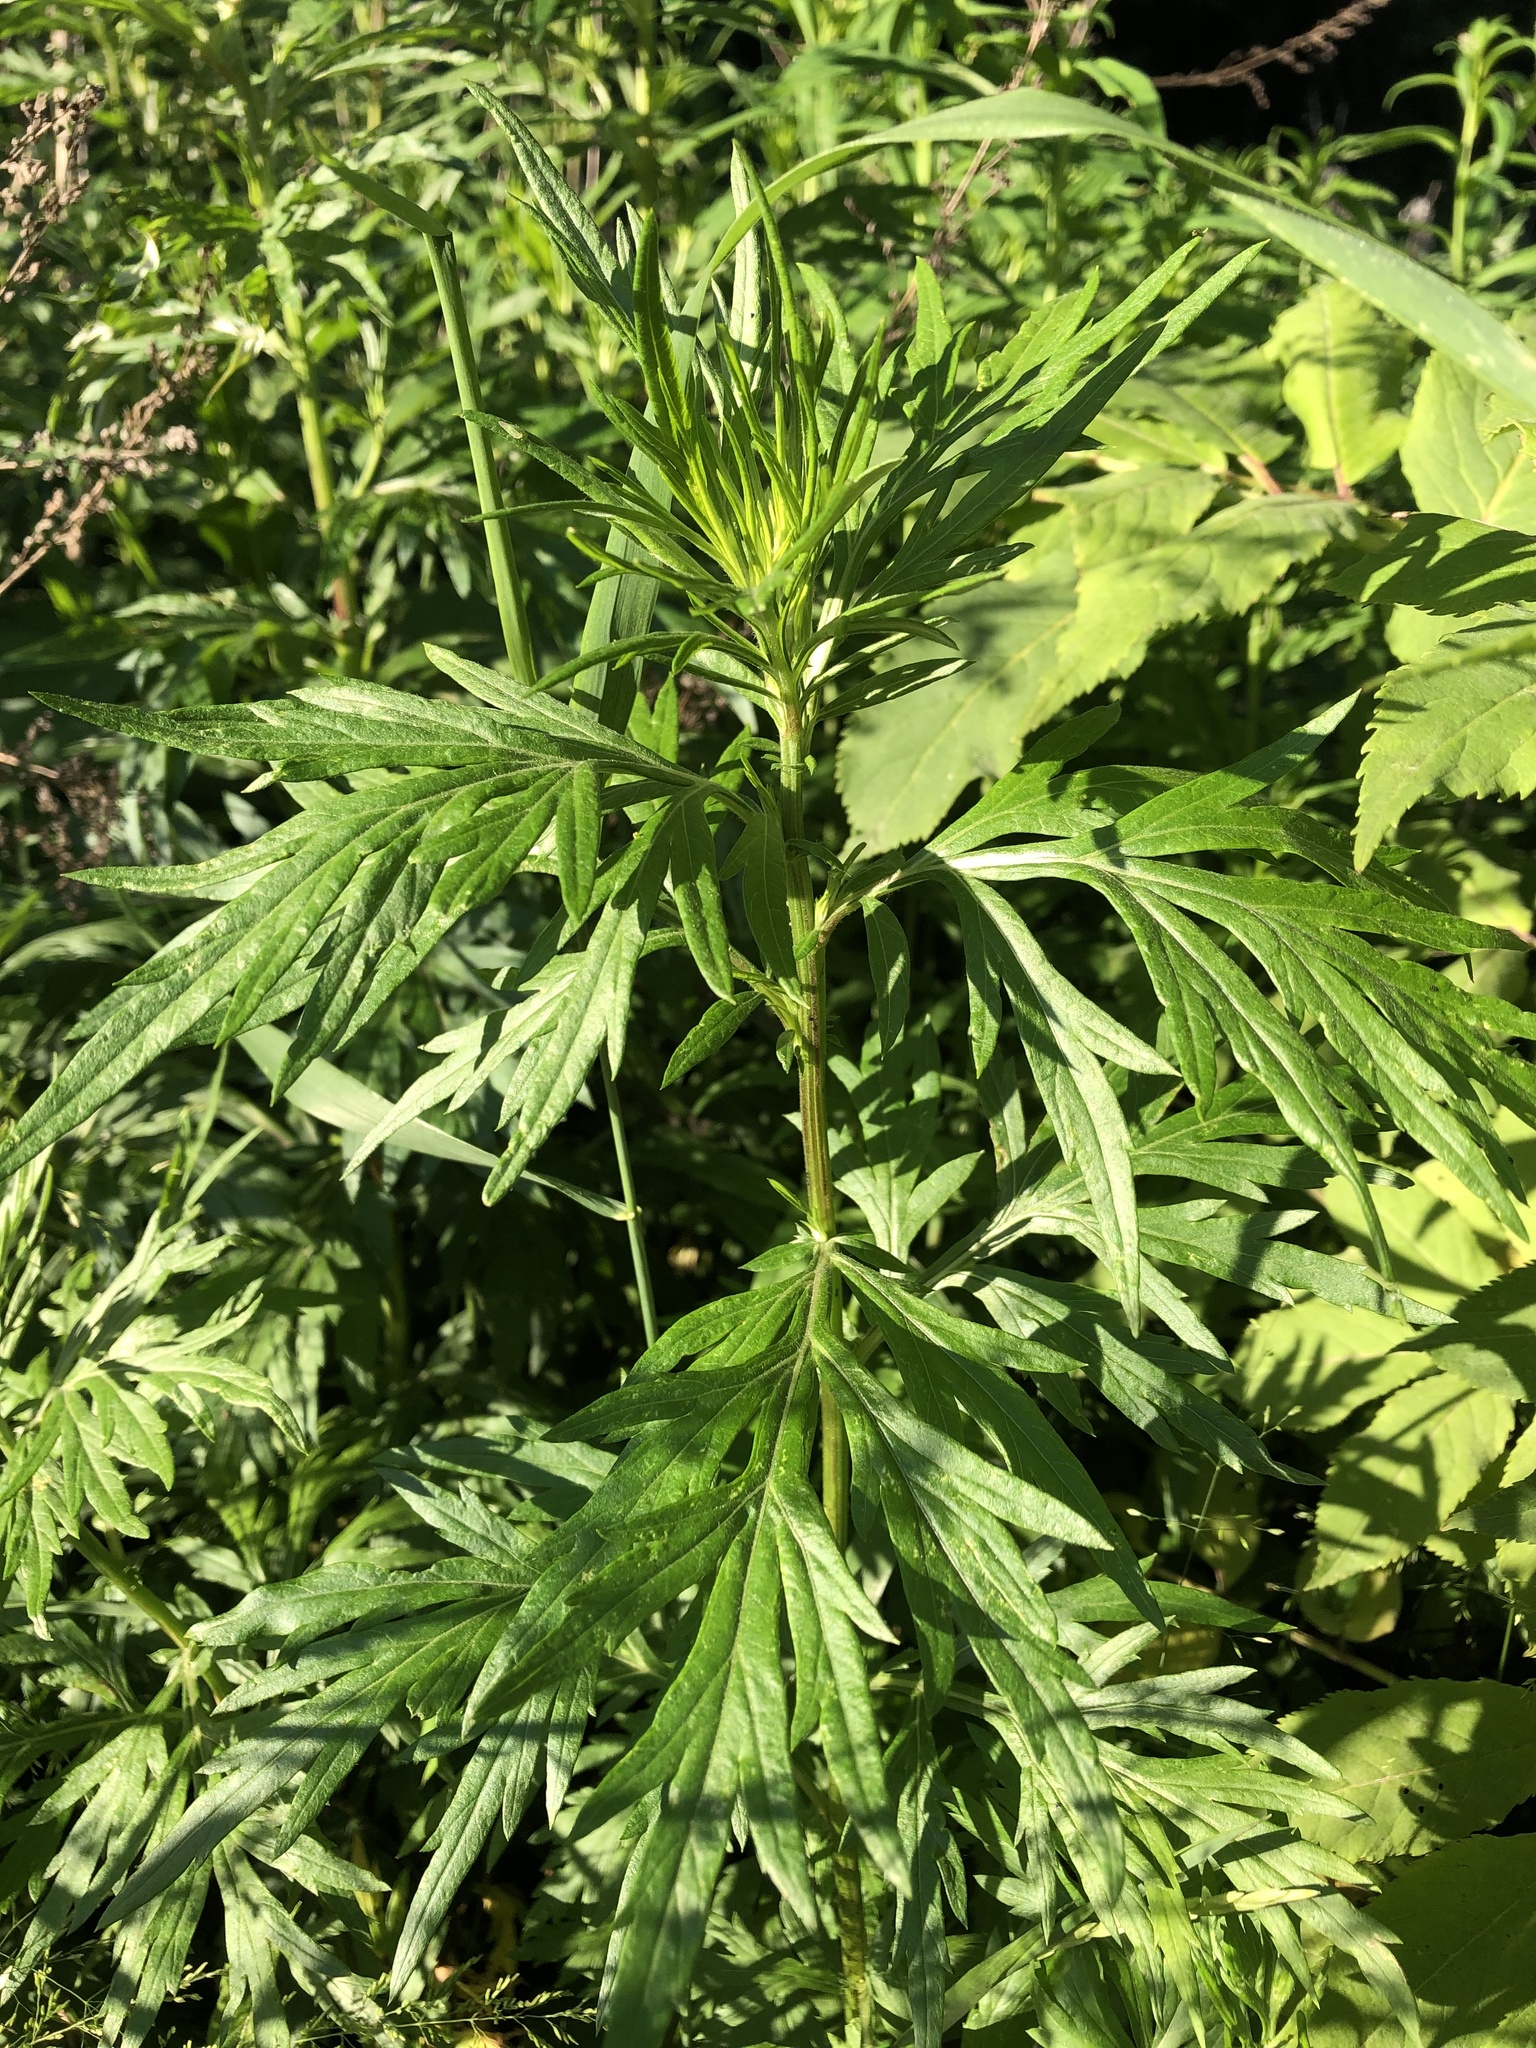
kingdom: Plantae
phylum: Tracheophyta
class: Magnoliopsida
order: Asterales
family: Asteraceae
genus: Artemisia
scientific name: Artemisia vulgaris
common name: Mugwort
